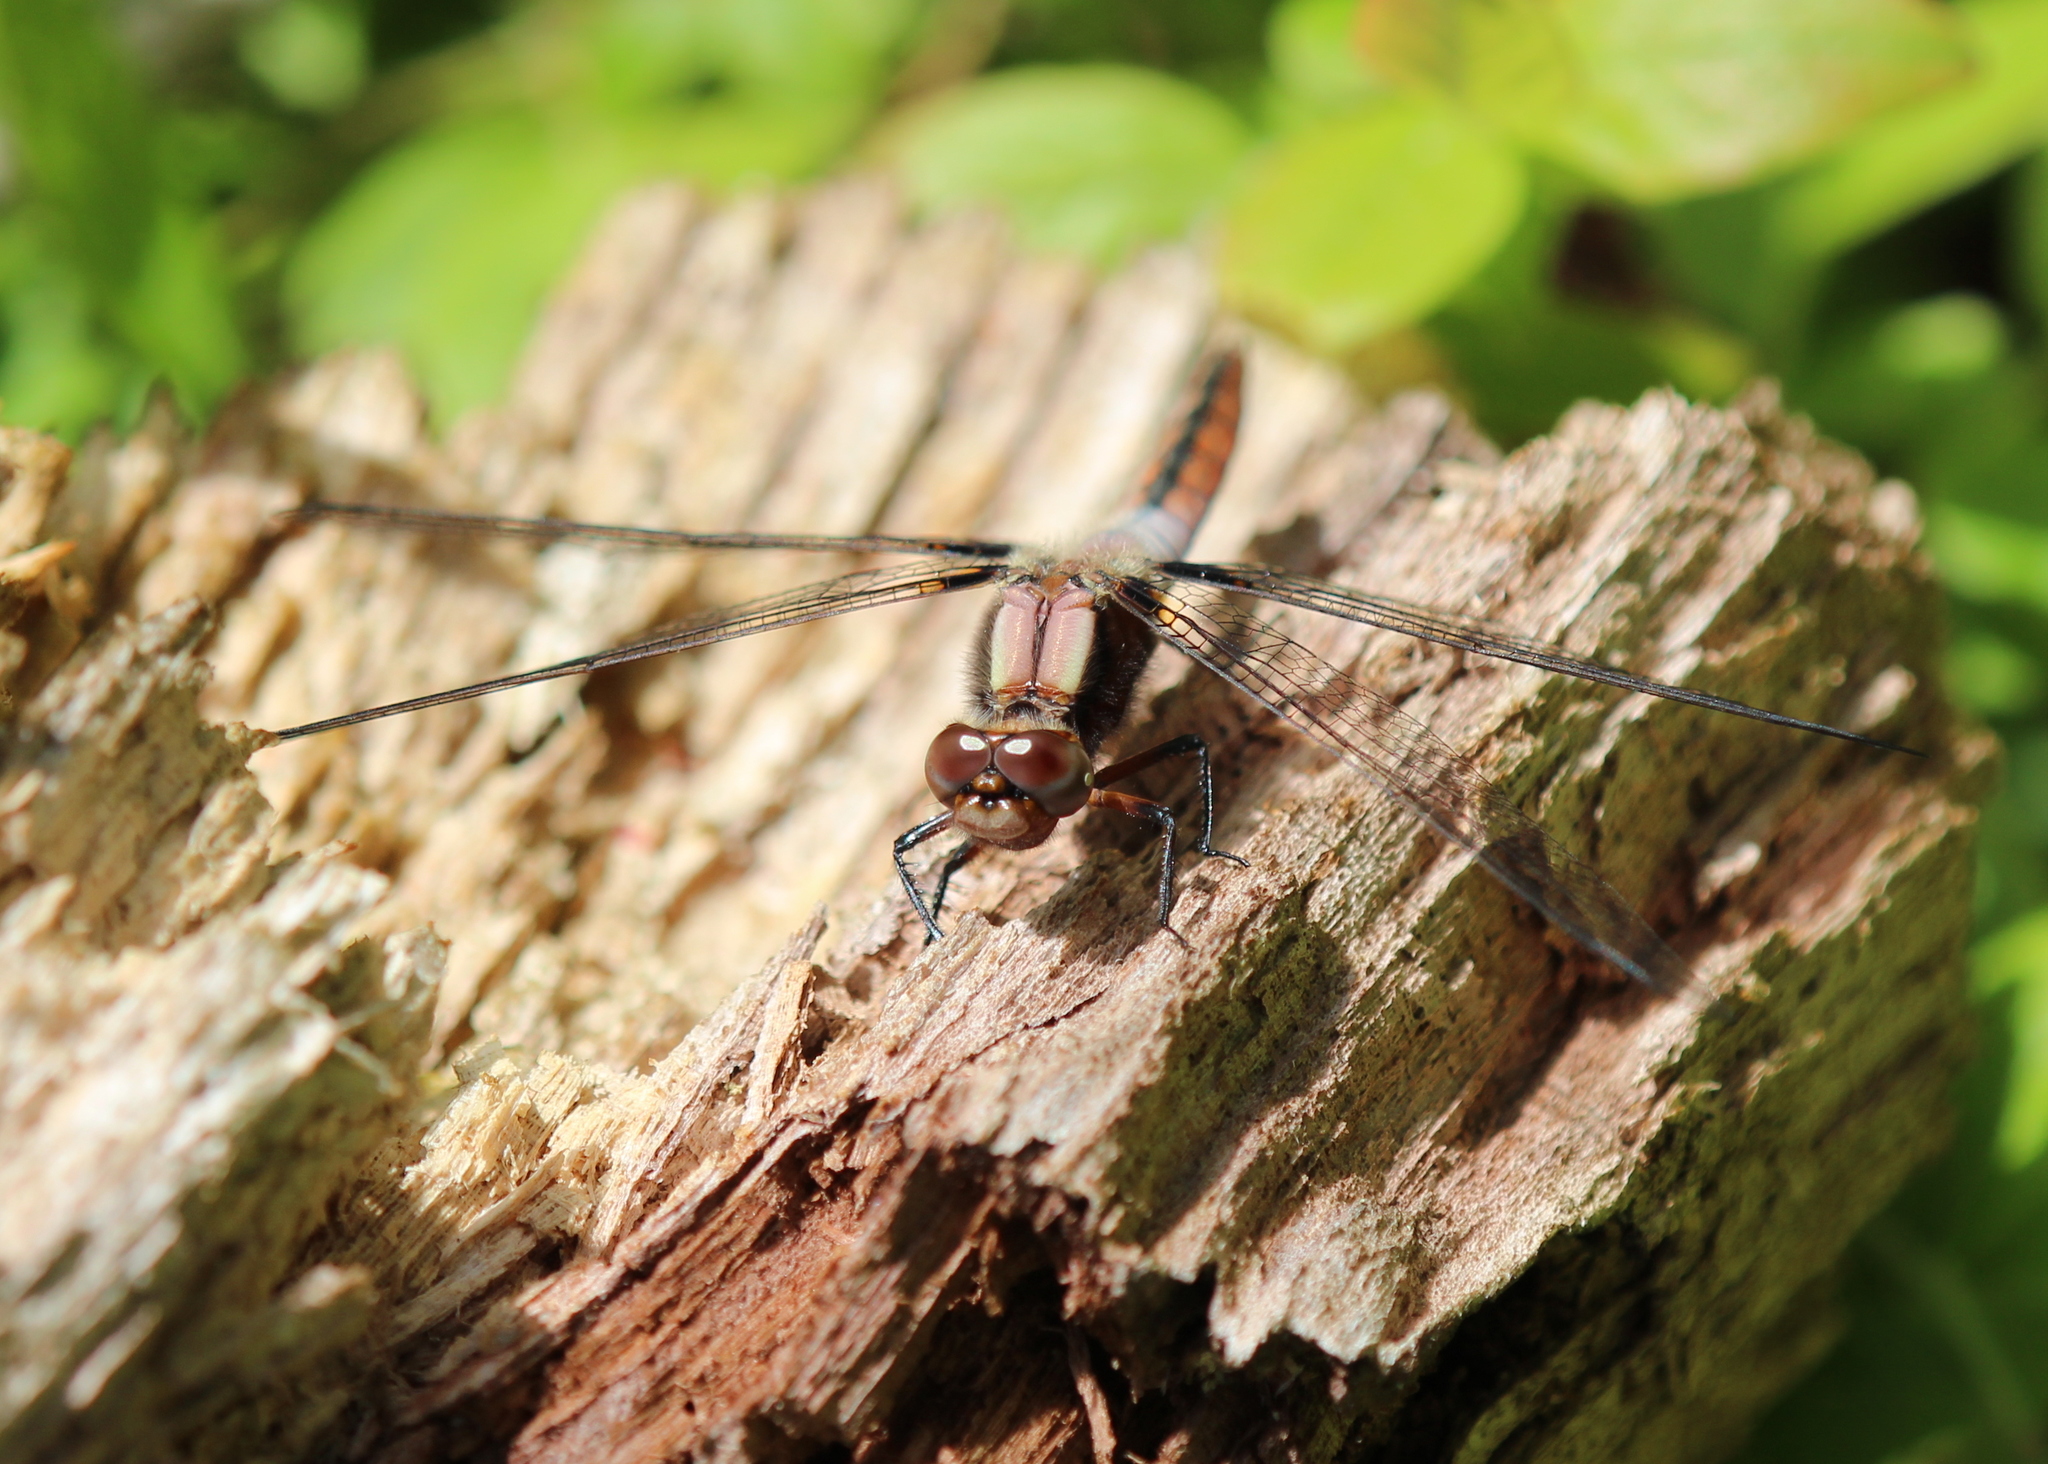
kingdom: Animalia
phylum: Arthropoda
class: Insecta
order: Odonata
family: Libellulidae
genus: Ladona
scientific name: Ladona julia
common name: Chalk-fronted corporal
